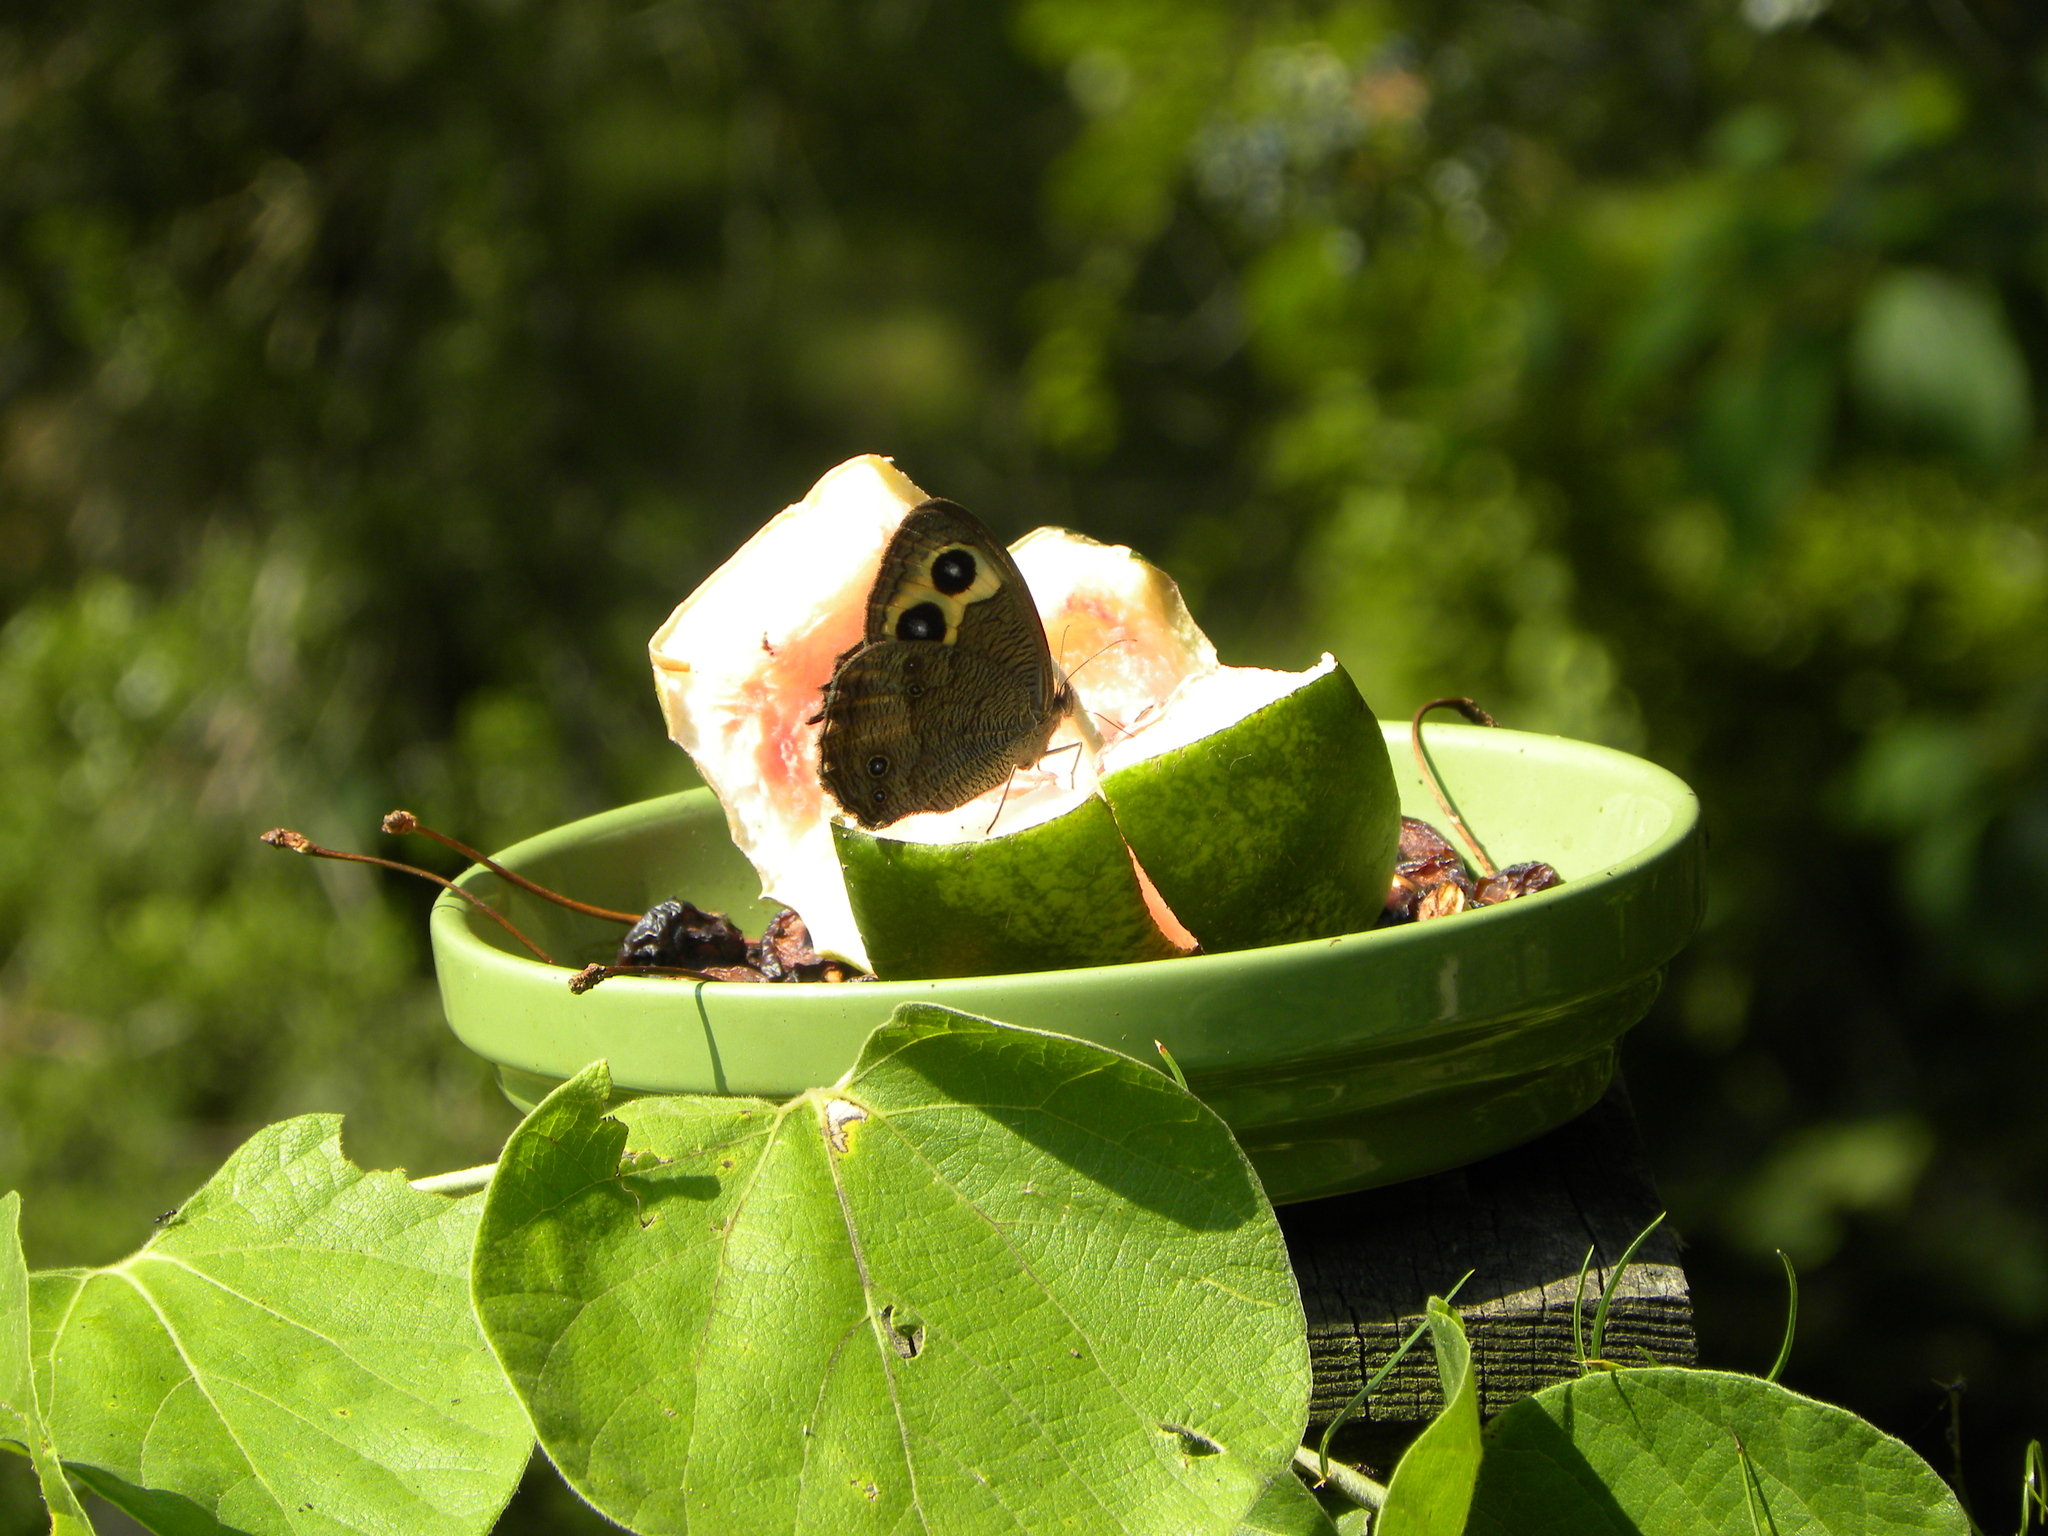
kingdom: Animalia
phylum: Arthropoda
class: Insecta
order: Lepidoptera
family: Nymphalidae
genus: Cercyonis
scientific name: Cercyonis pegala
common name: Common wood-nymph
